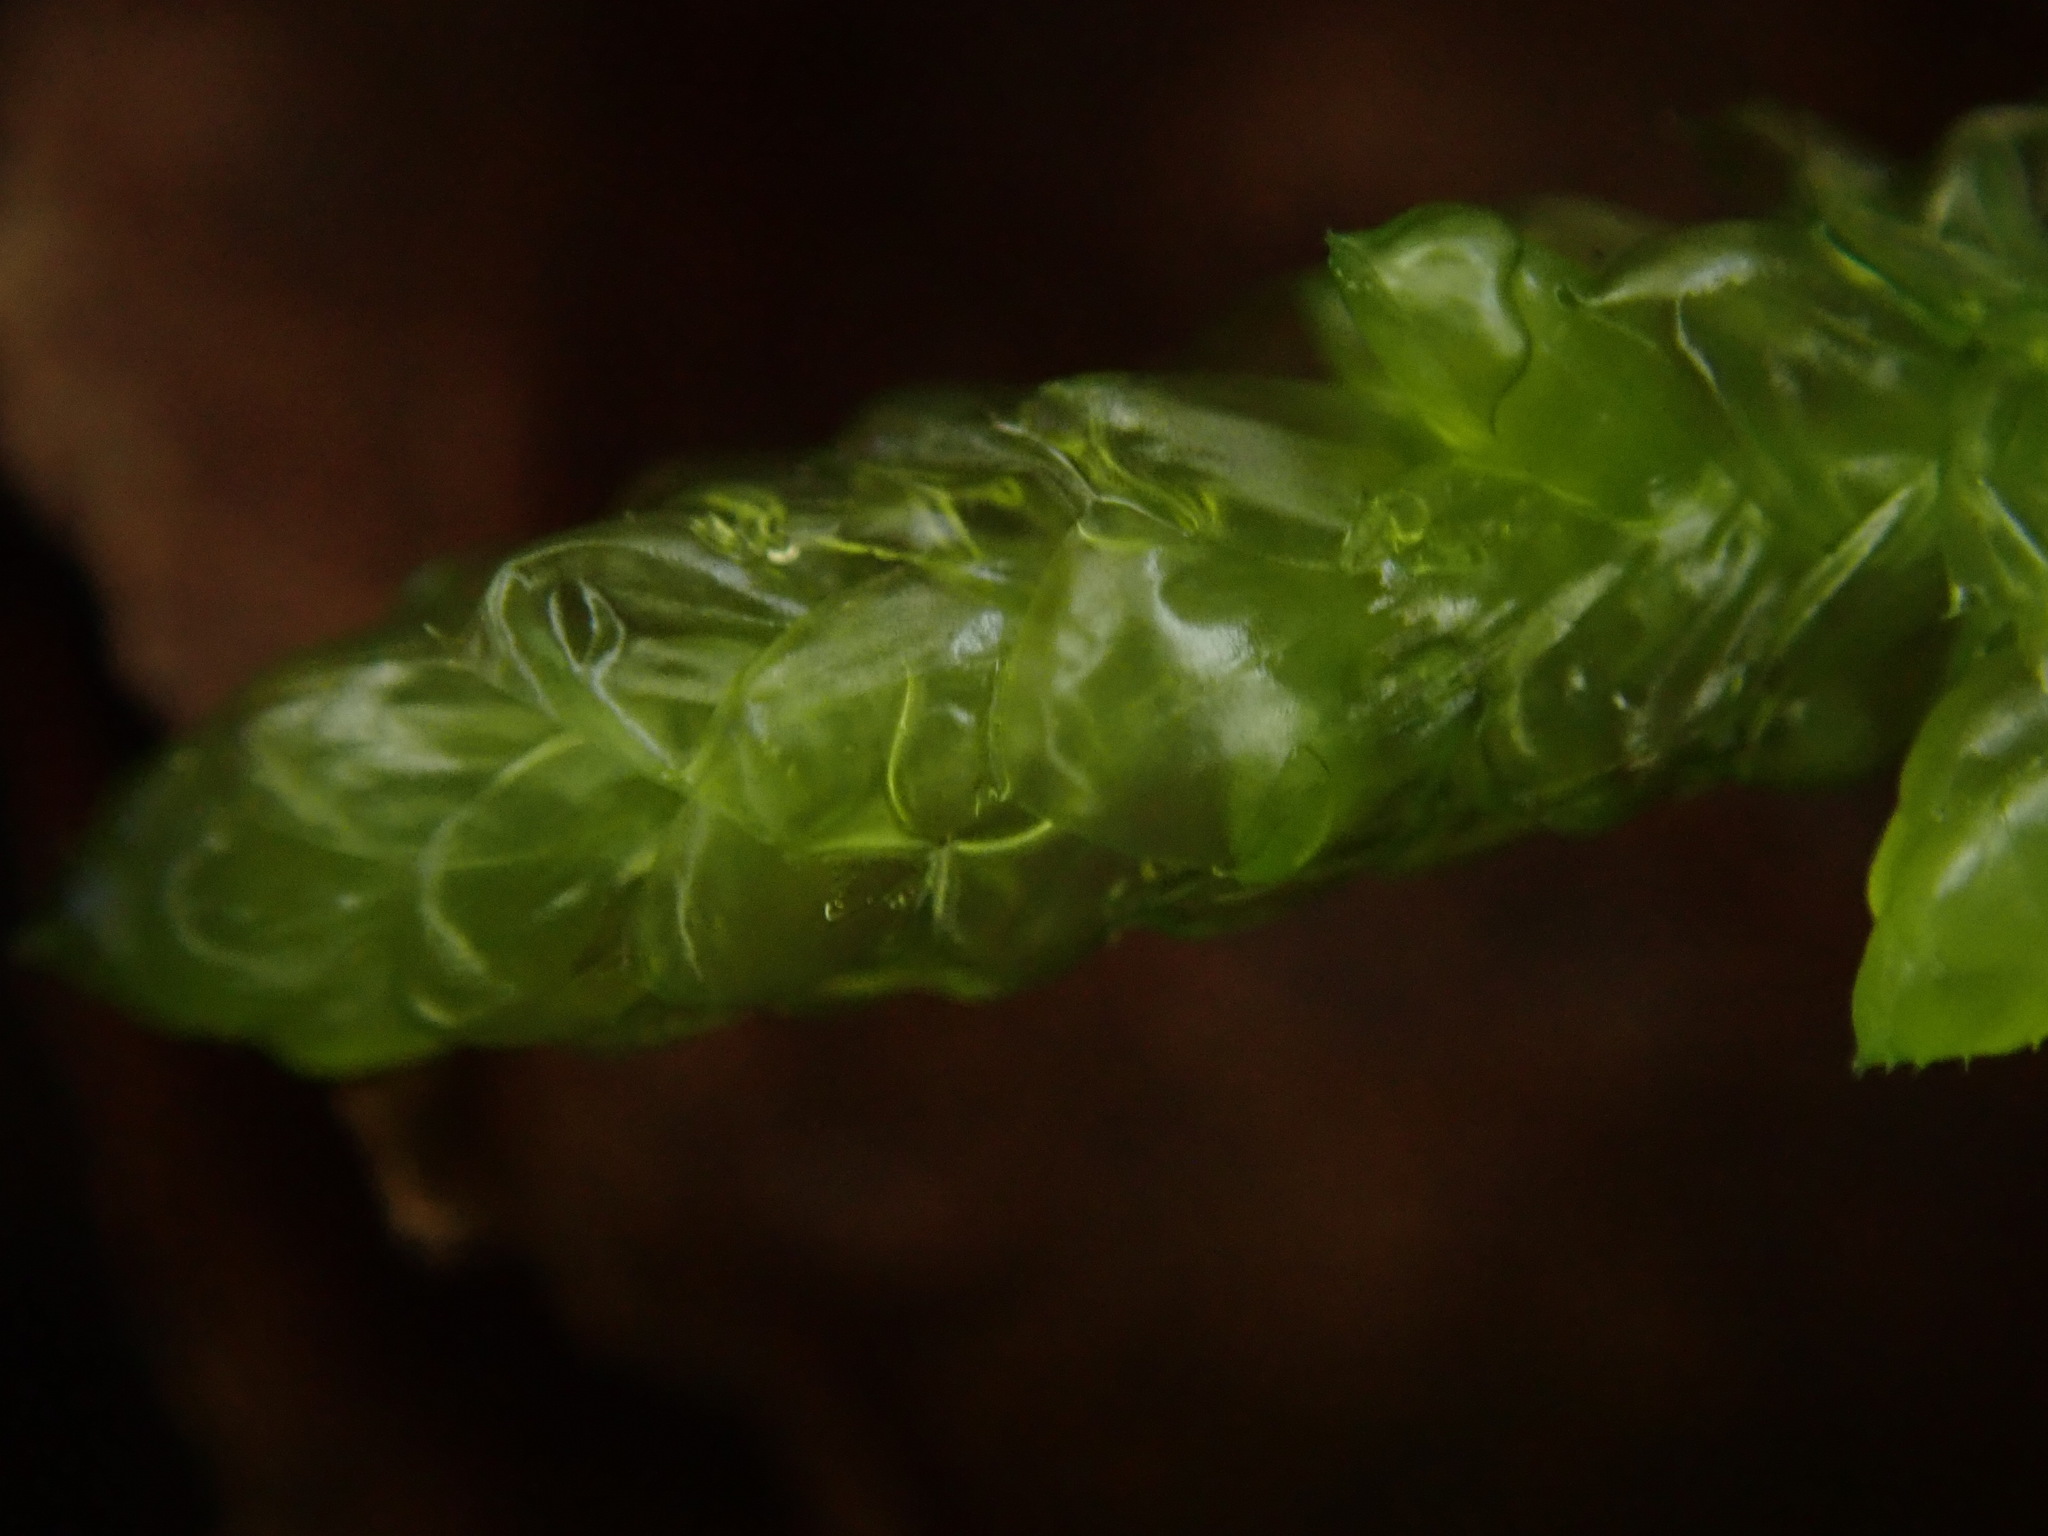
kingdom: Plantae
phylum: Bryophyta
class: Bryopsida
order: Hypnales
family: Brachytheciaceae
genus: Pseudoscleropodium
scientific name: Pseudoscleropodium purum
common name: Neat feather-moss
